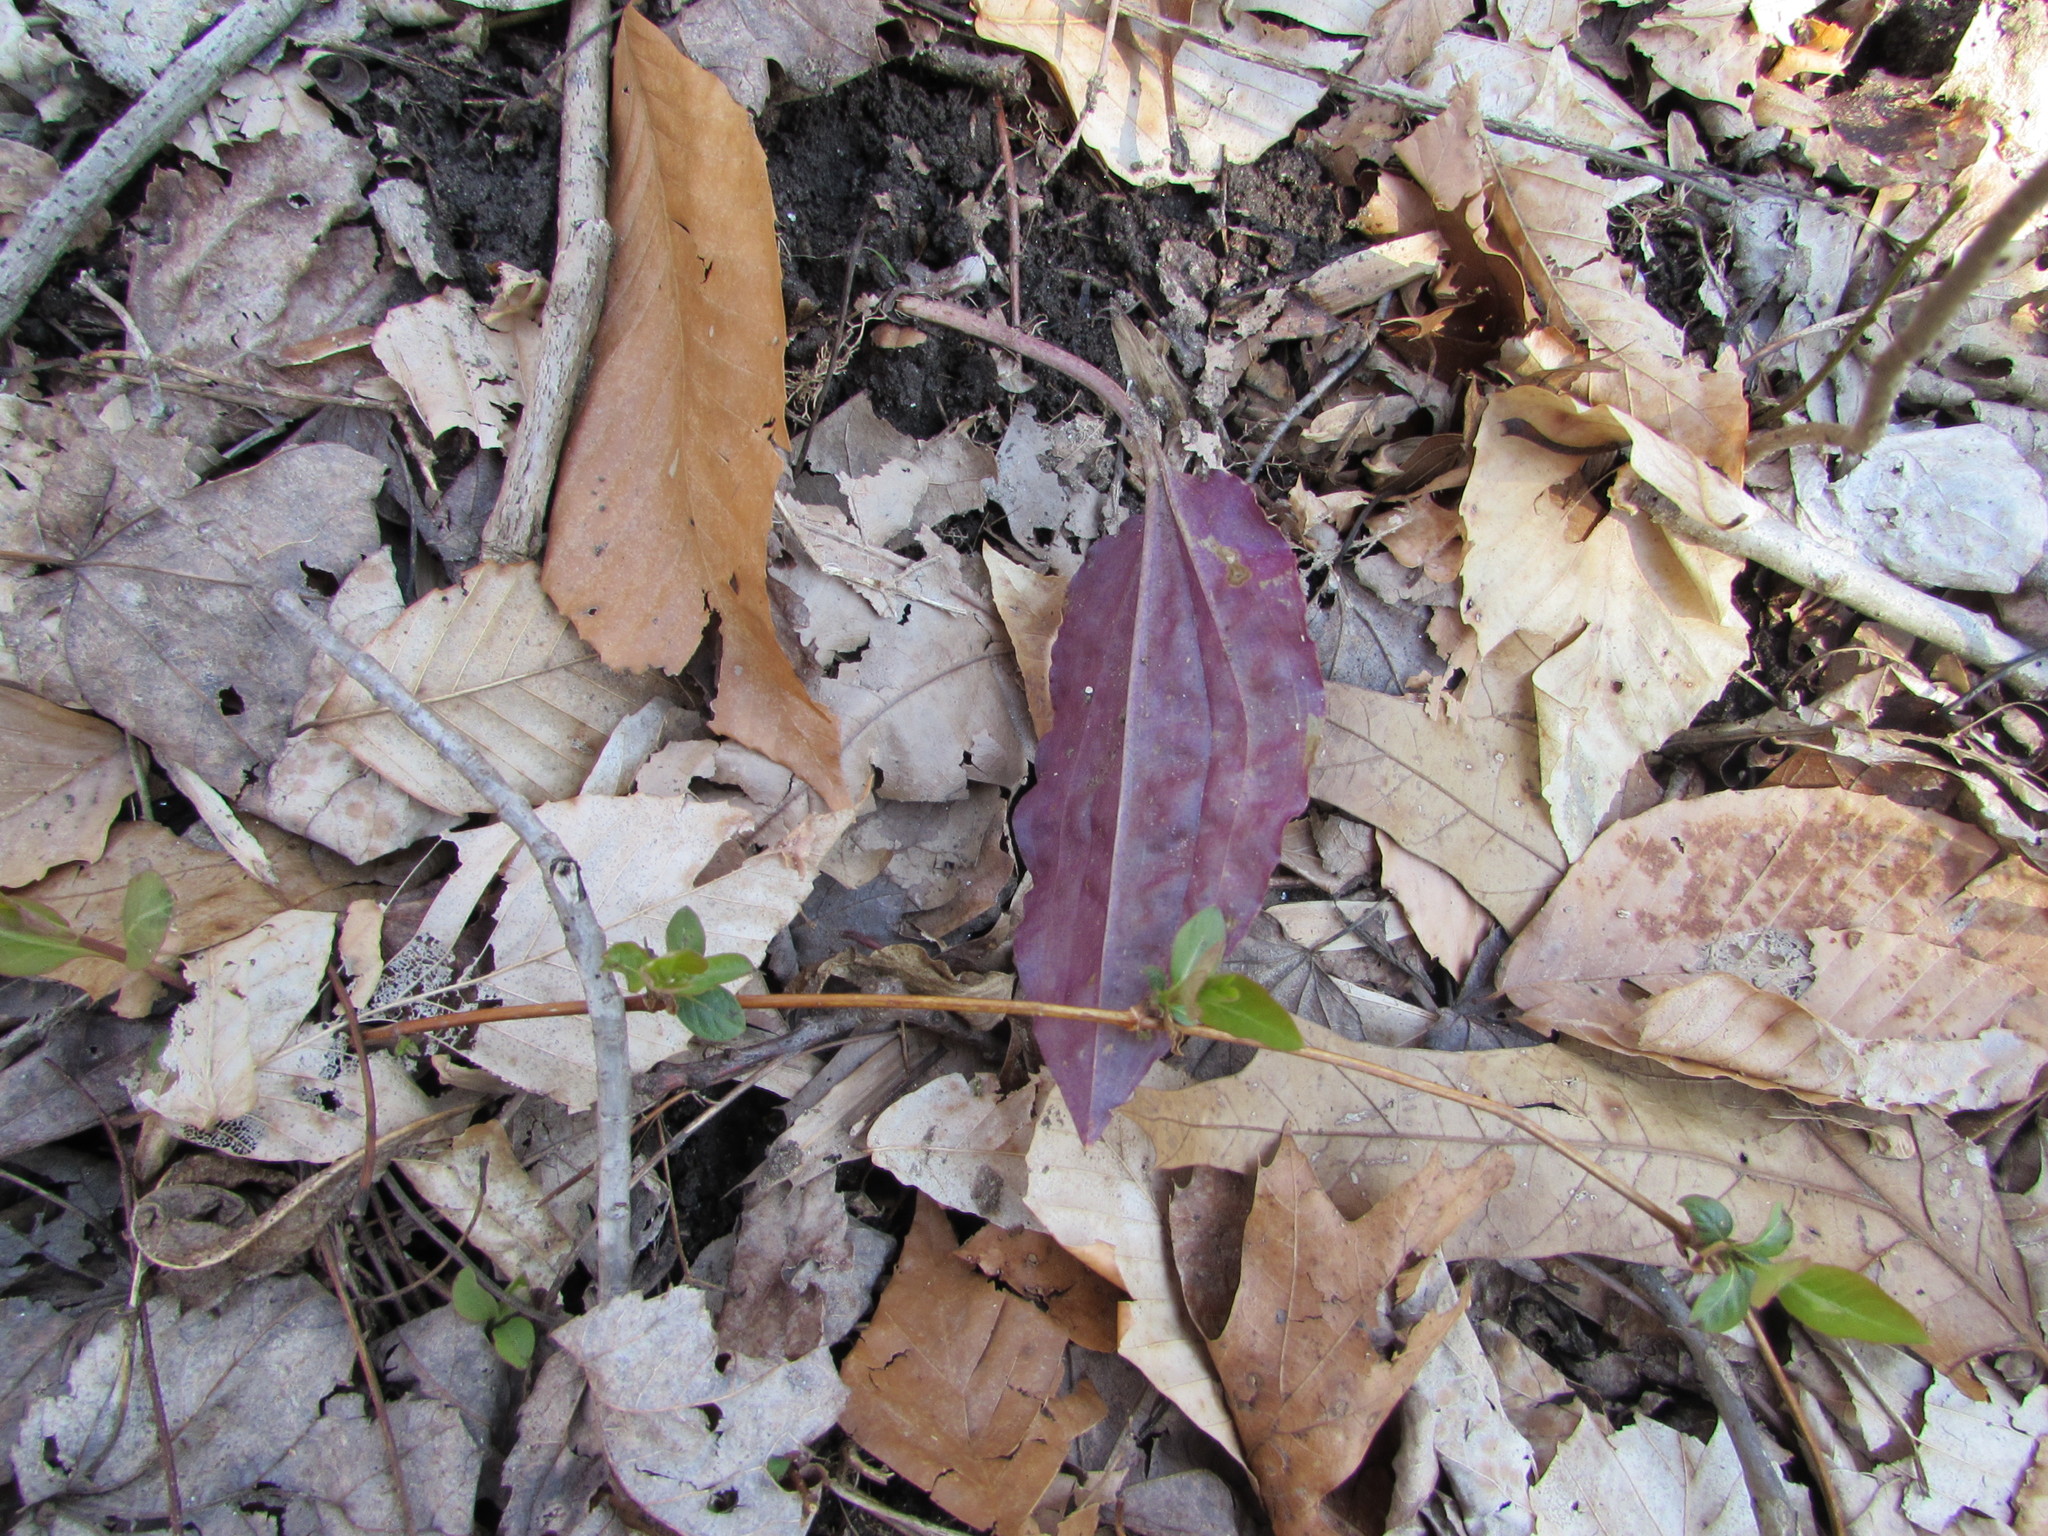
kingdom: Plantae
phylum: Tracheophyta
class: Liliopsida
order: Asparagales
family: Orchidaceae
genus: Tipularia
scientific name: Tipularia discolor
